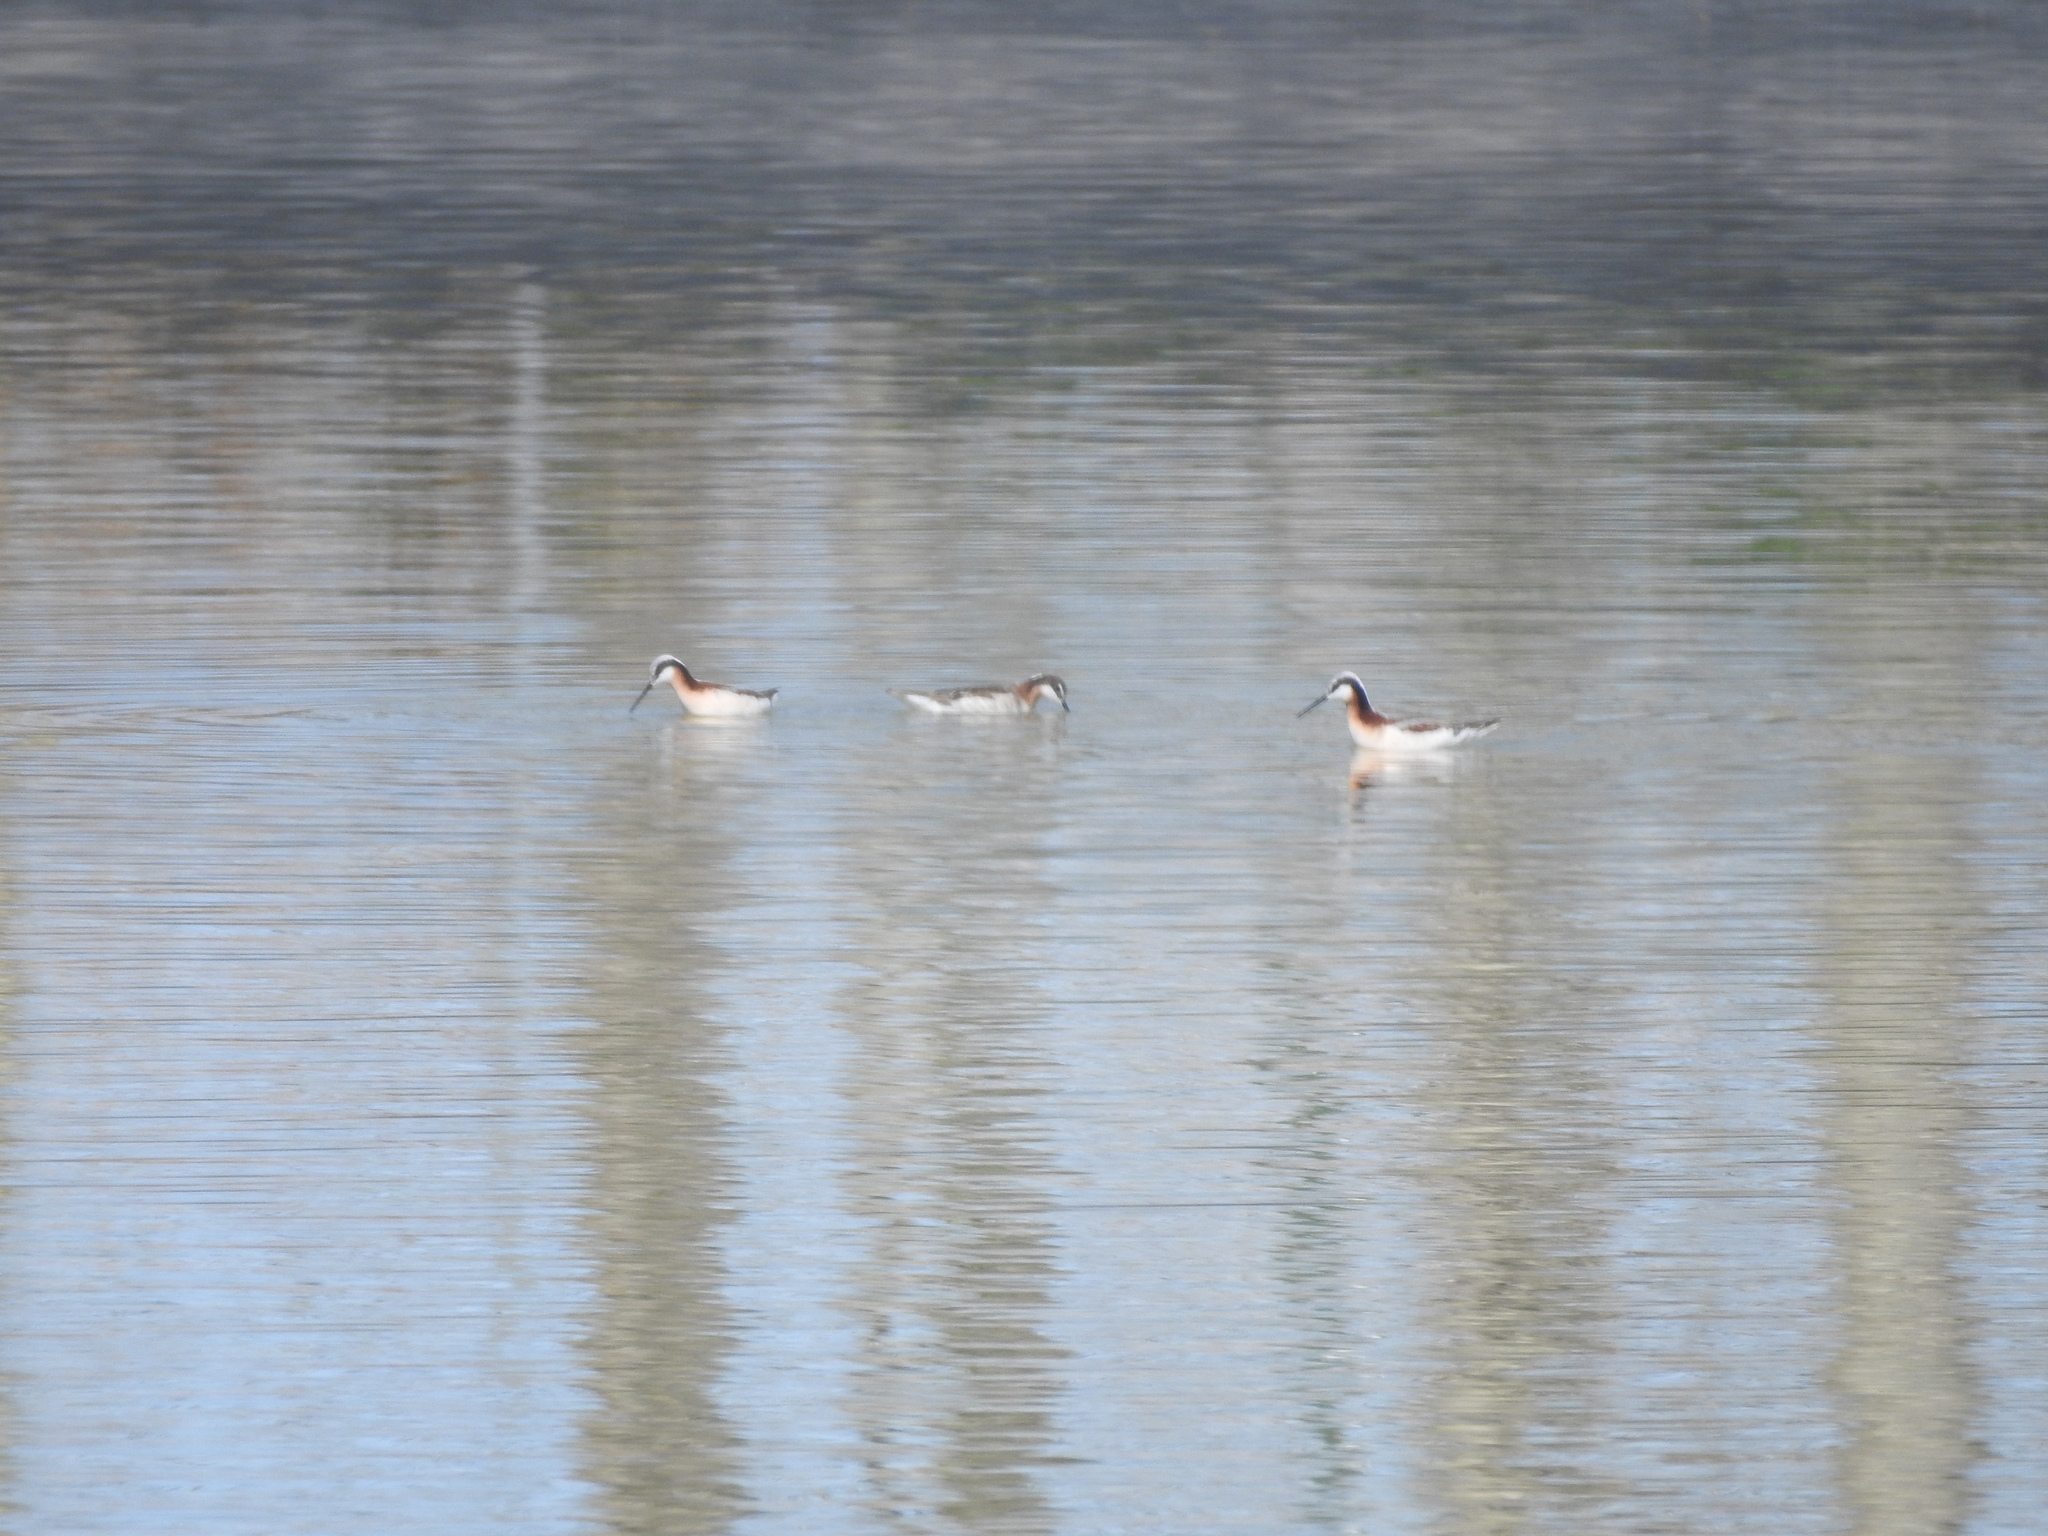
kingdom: Animalia
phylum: Chordata
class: Aves
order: Charadriiformes
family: Scolopacidae
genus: Phalaropus
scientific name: Phalaropus tricolor
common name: Wilson's phalarope
